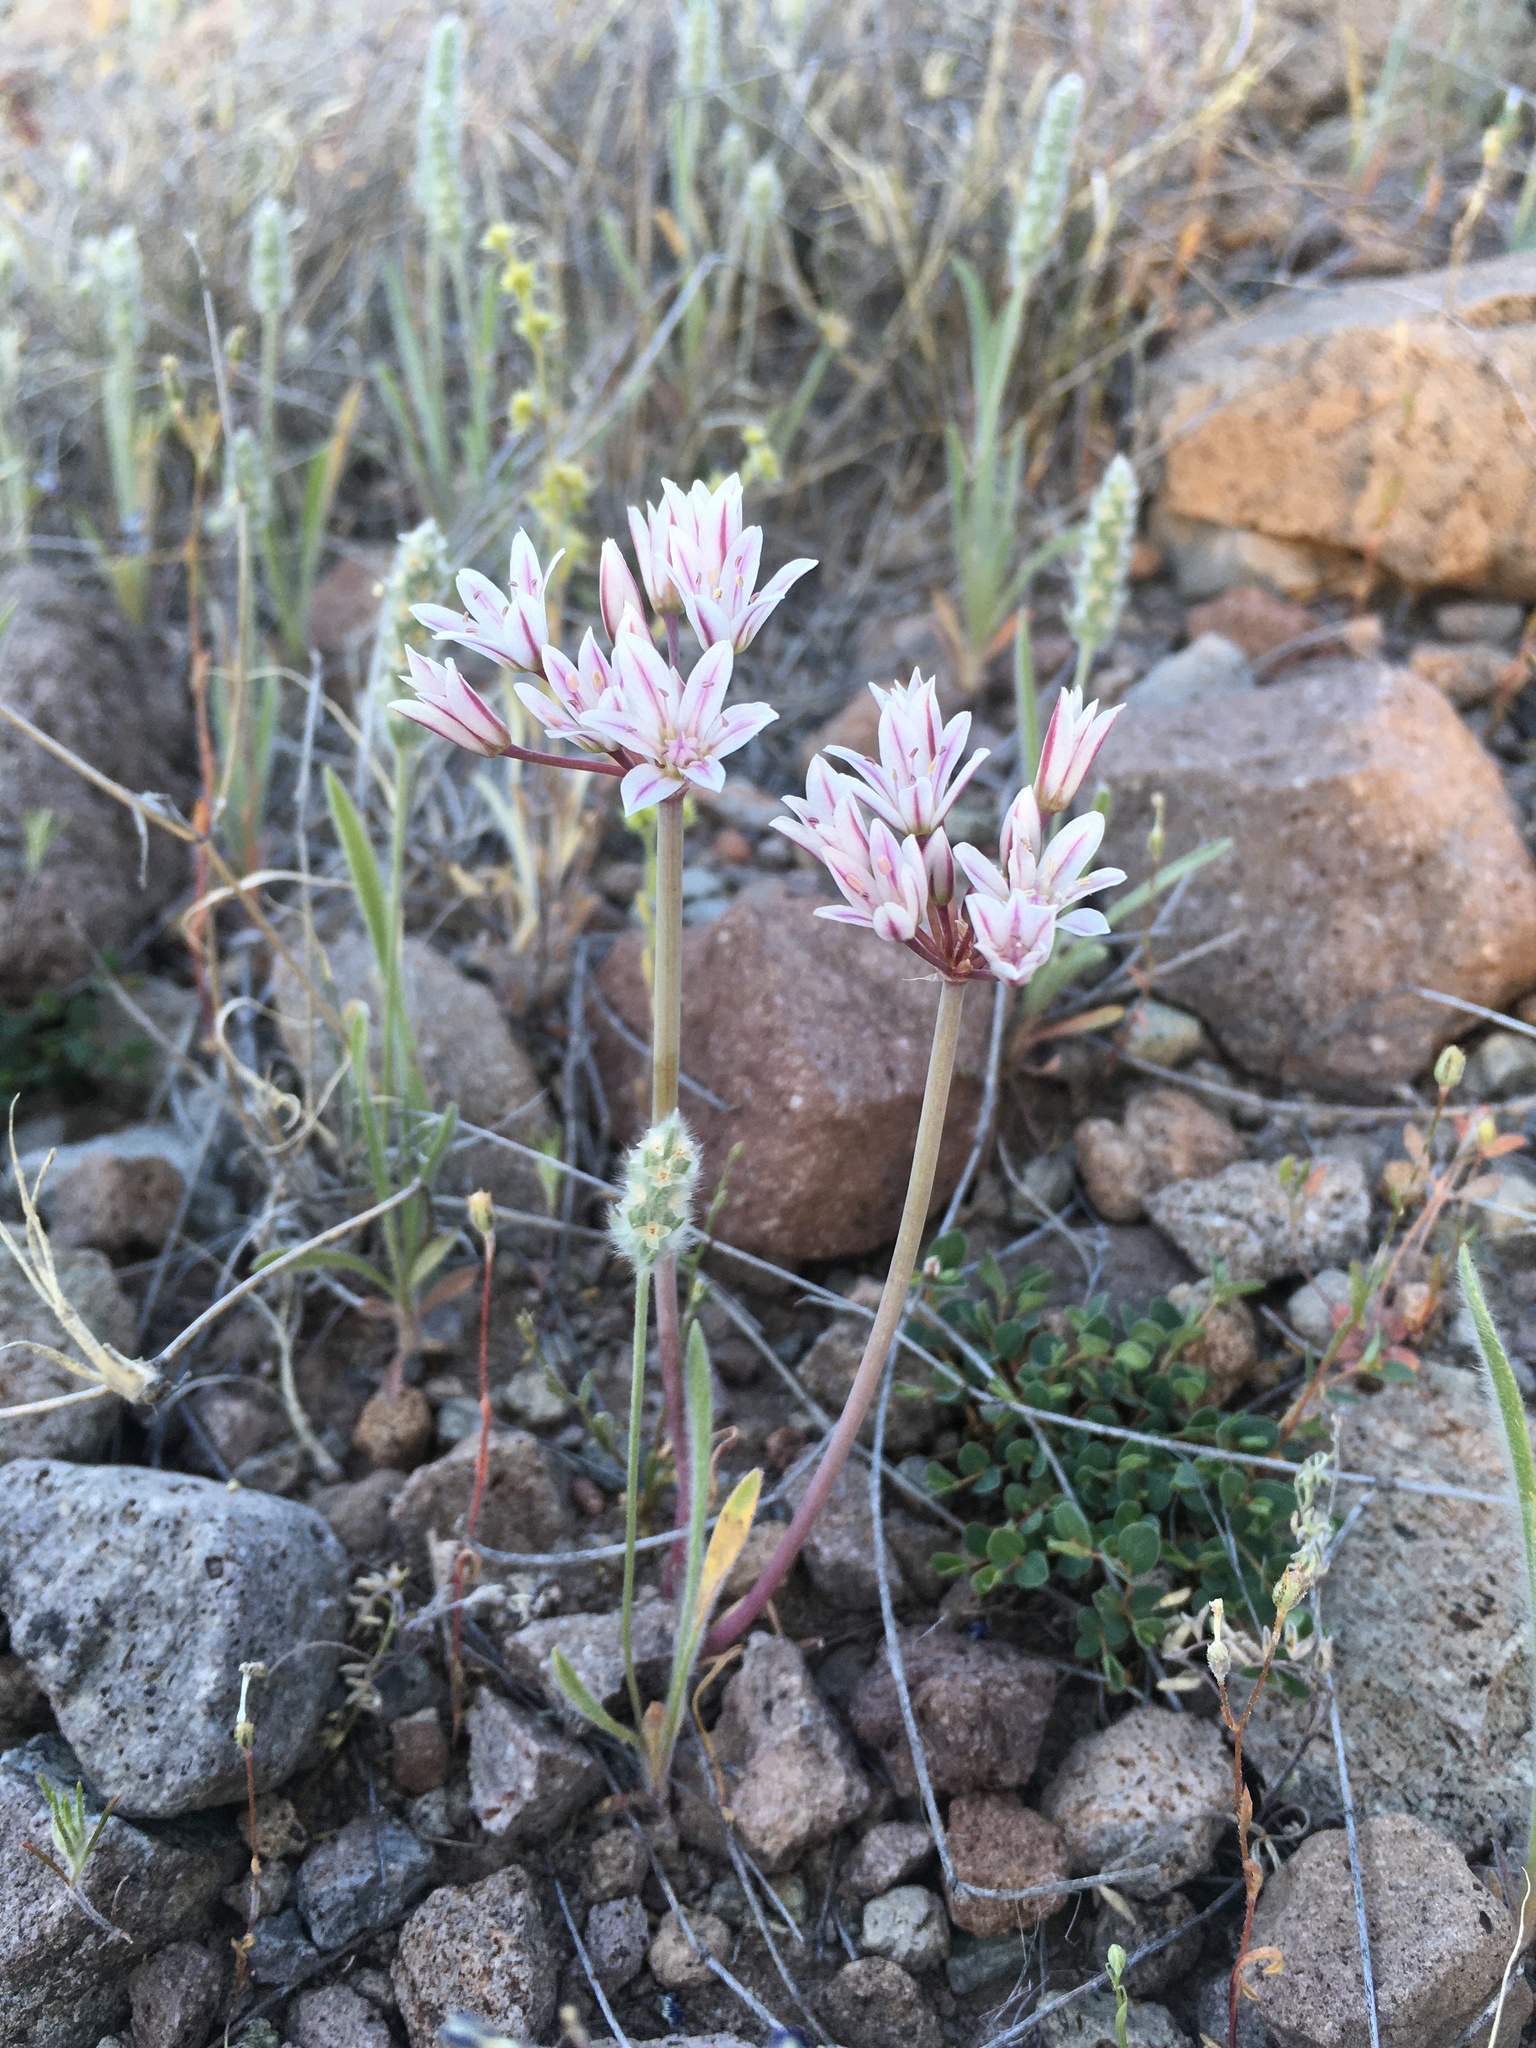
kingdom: Plantae
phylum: Tracheophyta
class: Liliopsida
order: Asparagales
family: Amaryllidaceae
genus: Allium
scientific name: Allium macropetalum
